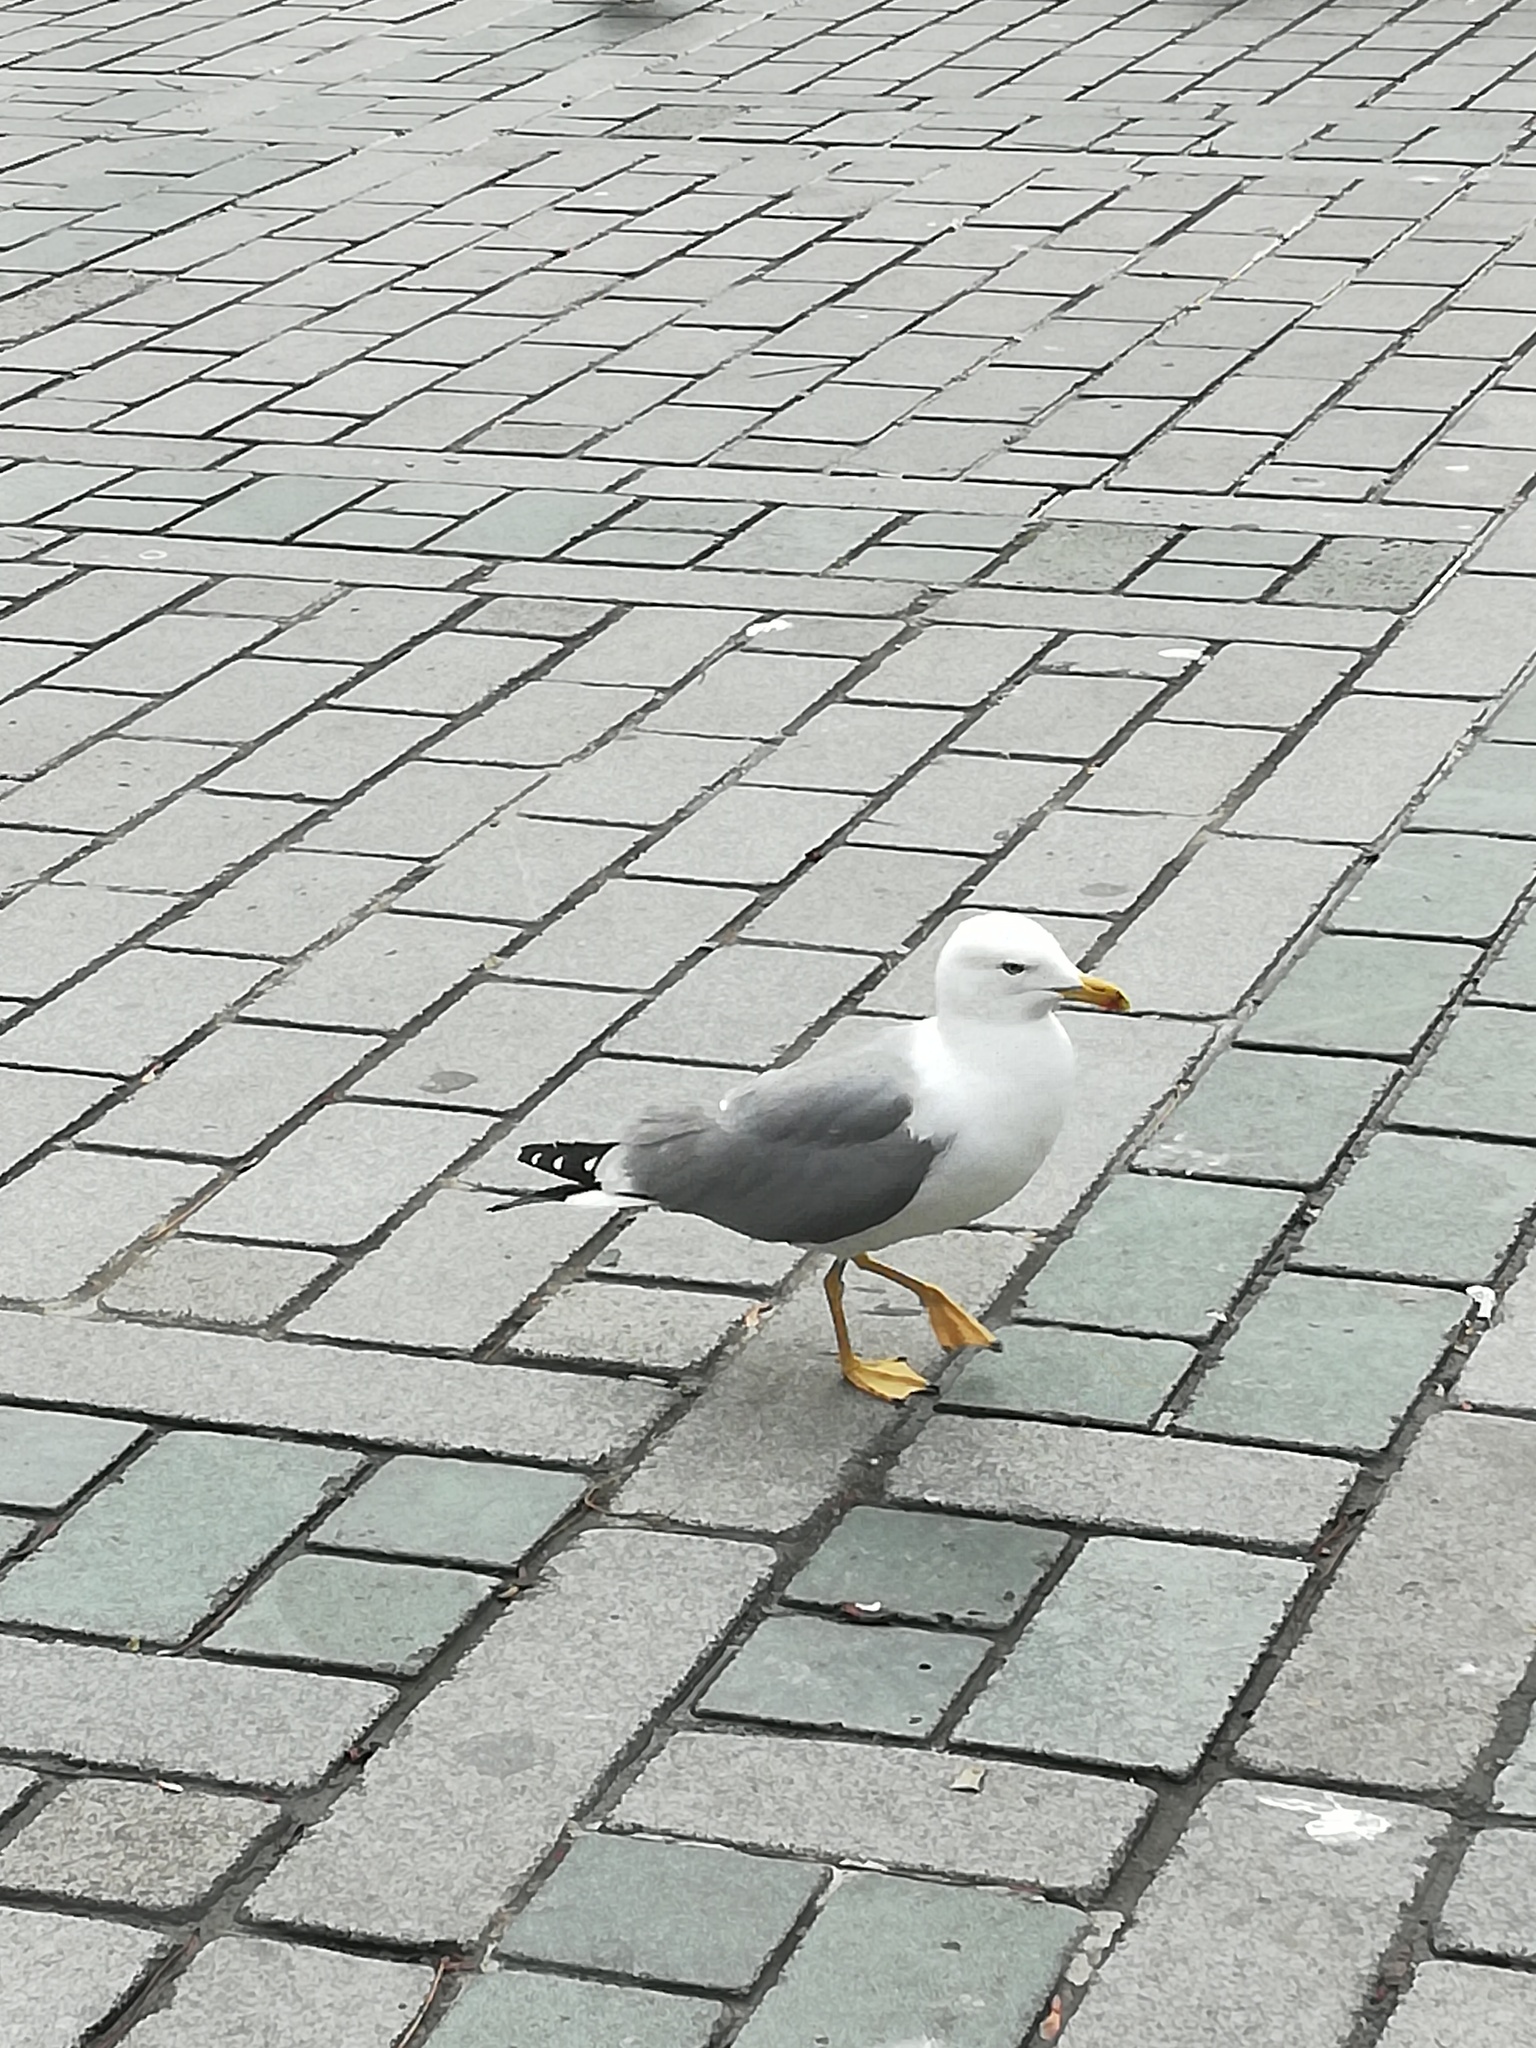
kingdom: Animalia
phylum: Chordata
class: Aves
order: Charadriiformes
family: Laridae
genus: Larus
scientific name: Larus michahellis
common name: Yellow-legged gull
